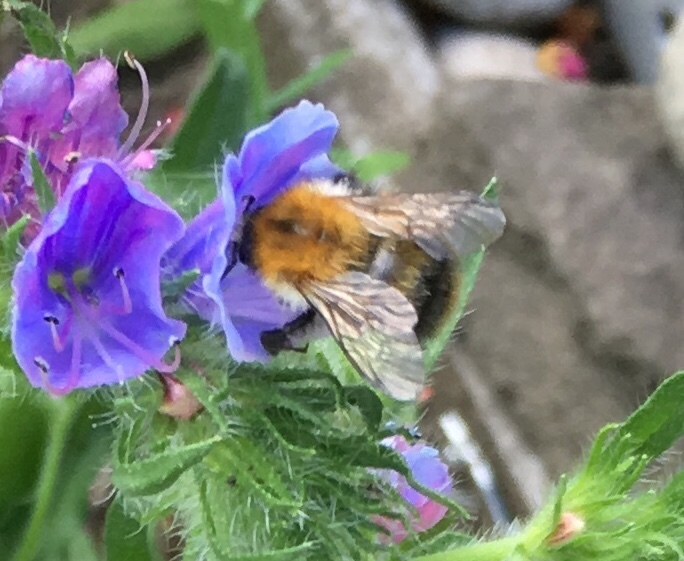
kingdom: Animalia
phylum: Arthropoda
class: Insecta
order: Hymenoptera
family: Apidae
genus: Bombus
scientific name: Bombus pascuorum
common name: Common carder bee
